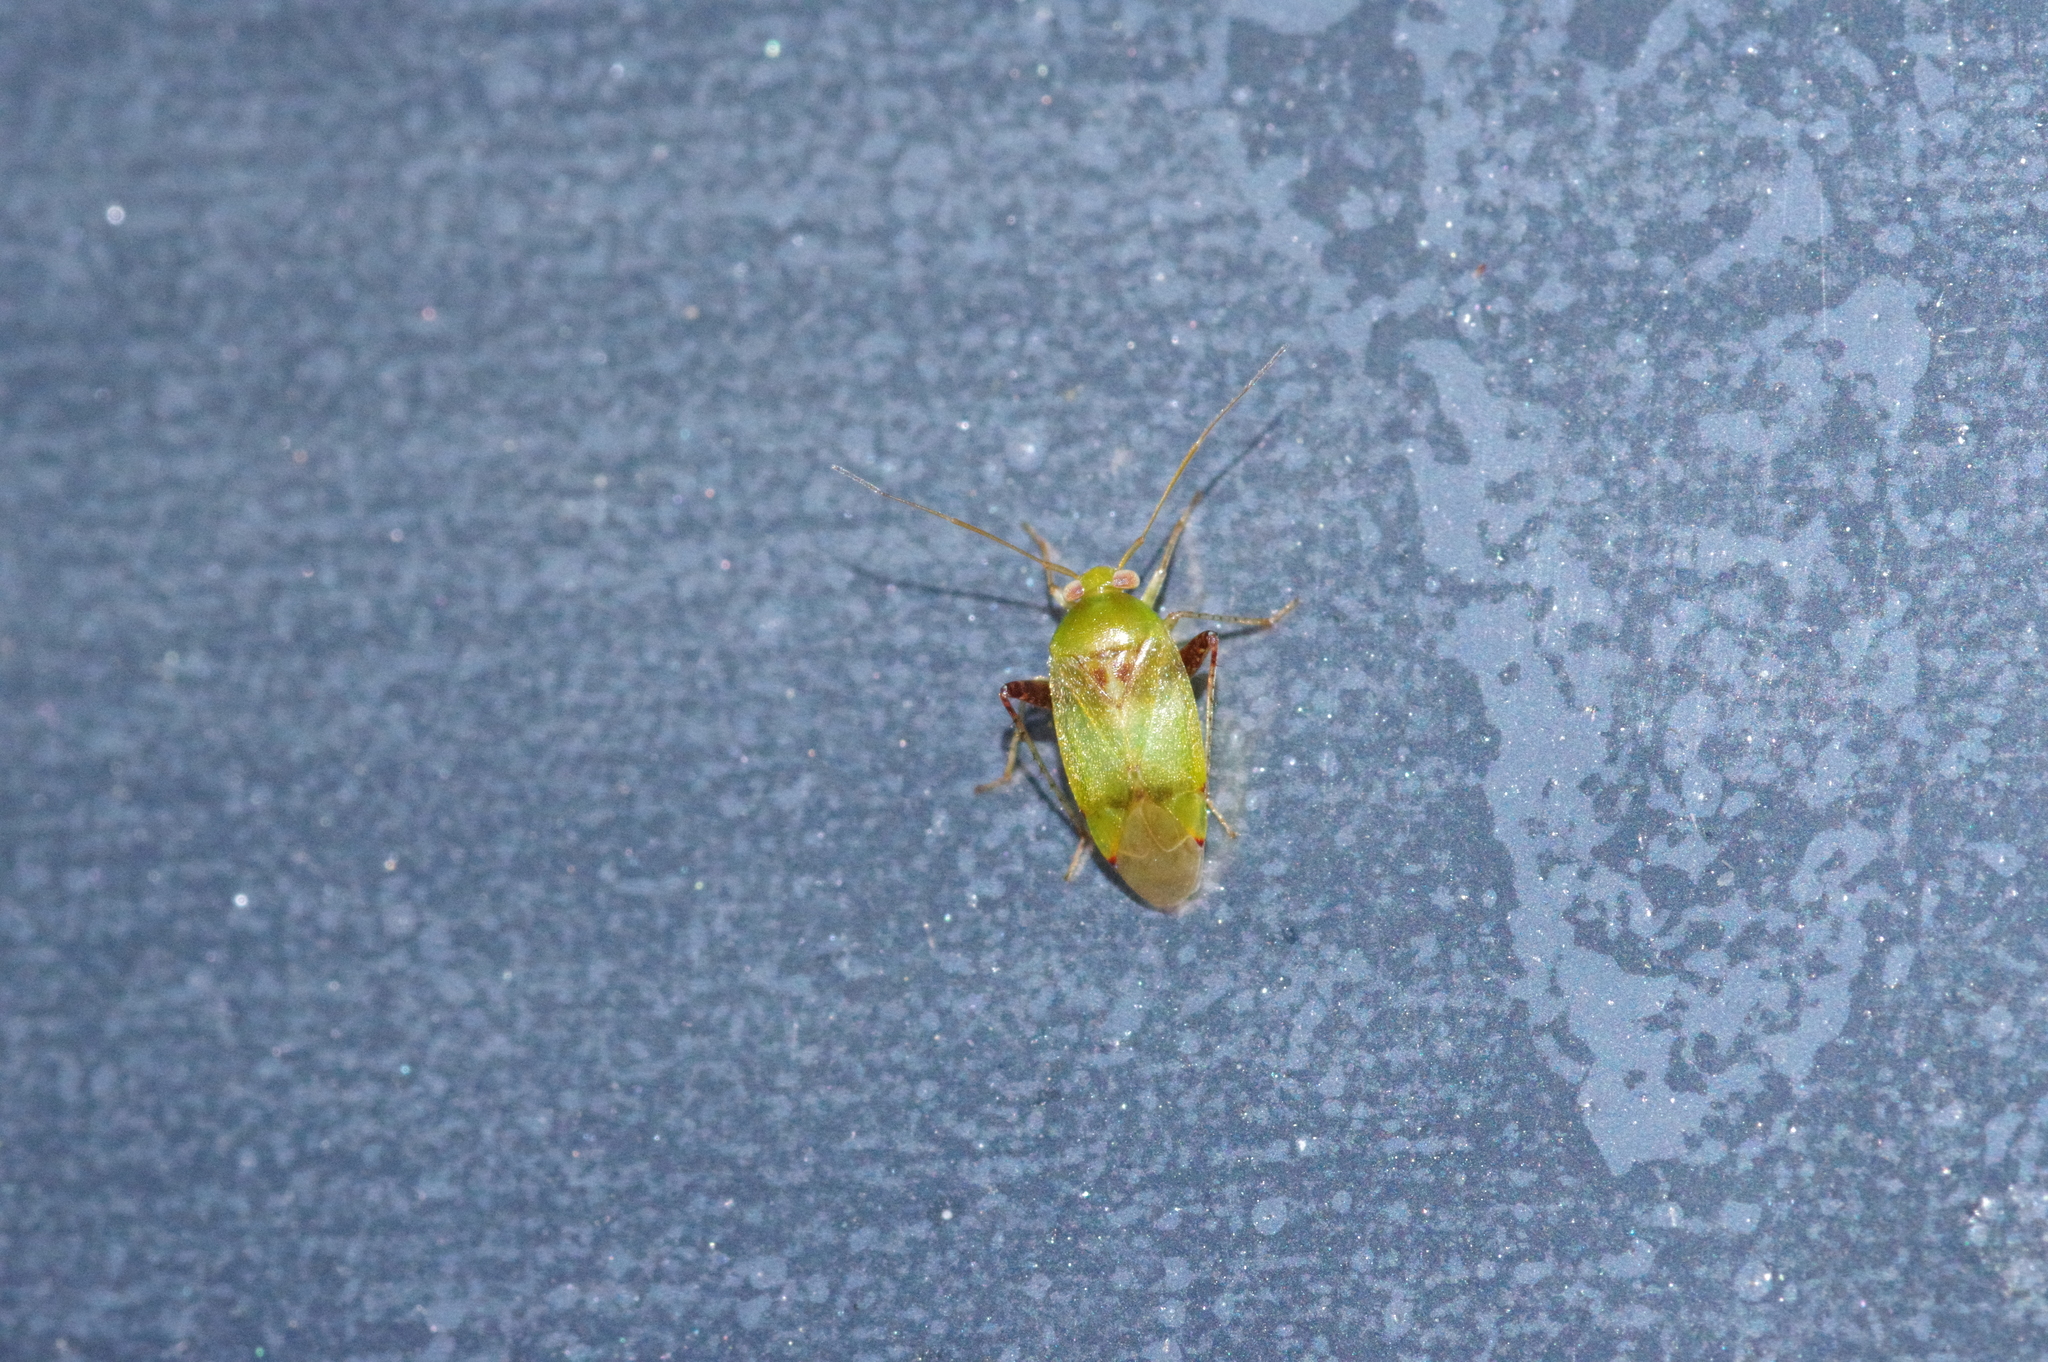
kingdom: Animalia
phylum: Arthropoda
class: Insecta
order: Hemiptera
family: Miridae
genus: Anthophilolygus
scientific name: Anthophilolygus bakeri
